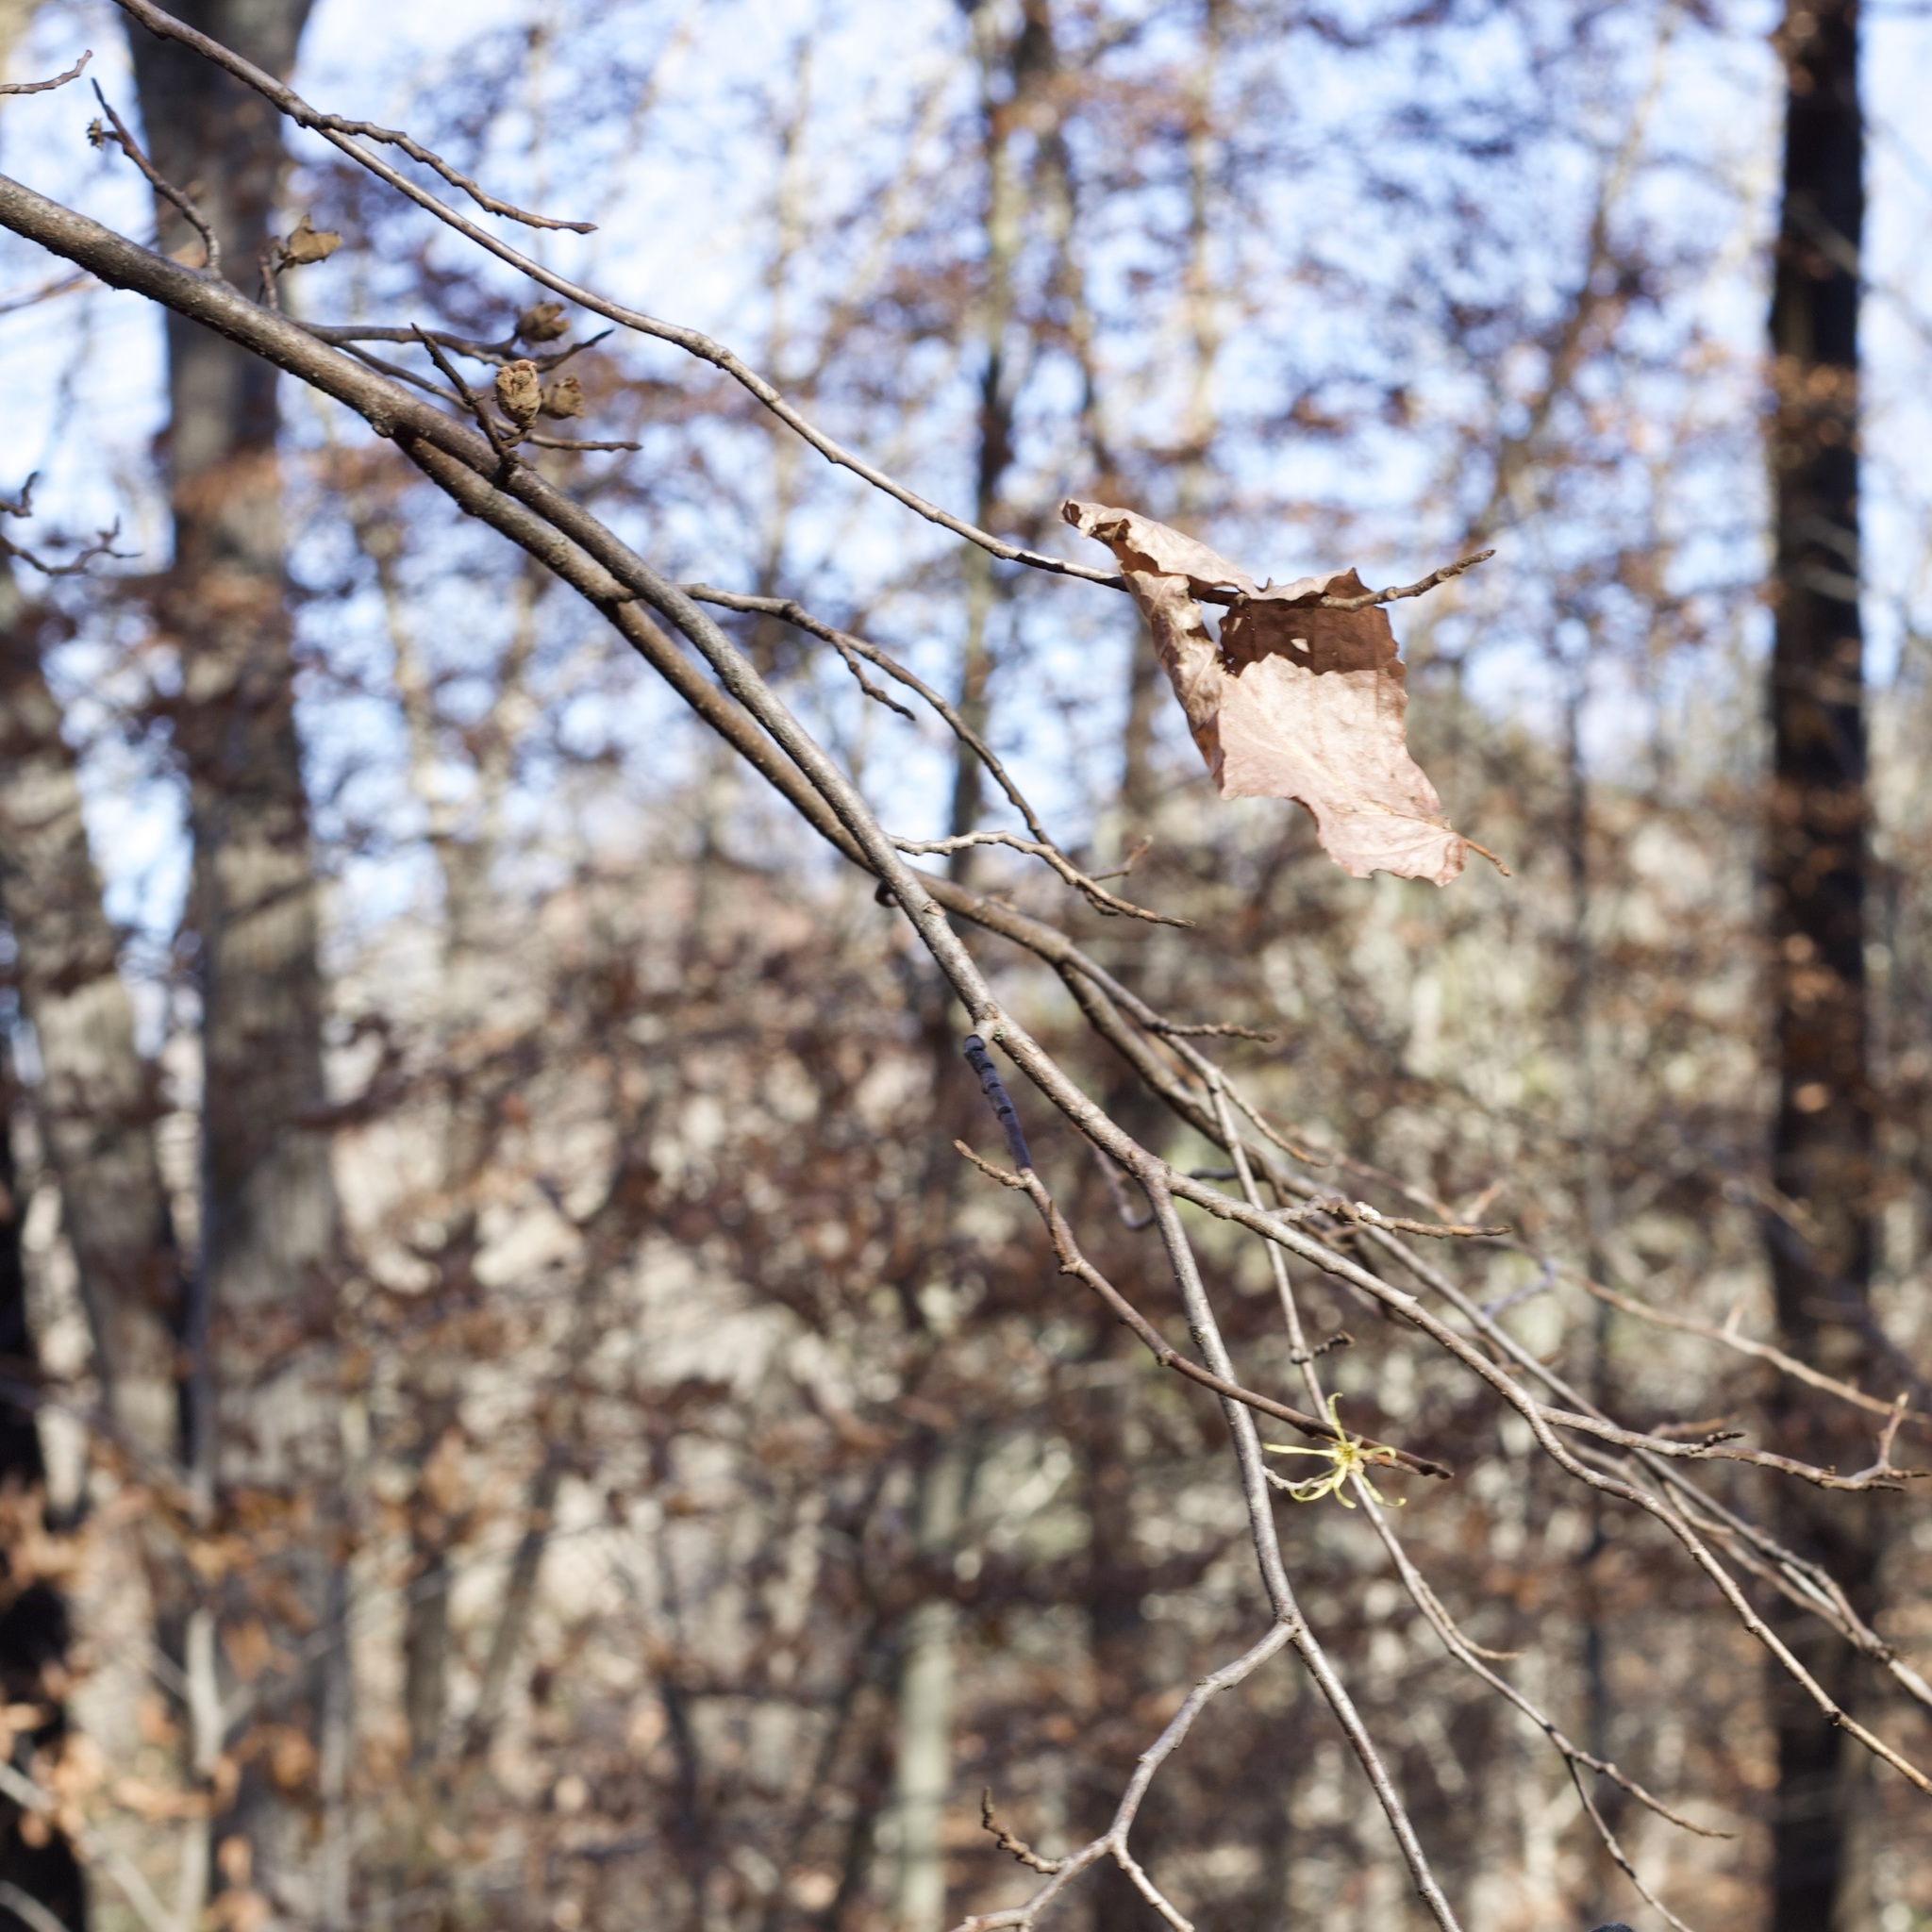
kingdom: Plantae
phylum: Tracheophyta
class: Magnoliopsida
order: Saxifragales
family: Hamamelidaceae
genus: Hamamelis
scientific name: Hamamelis virginiana
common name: Witch-hazel
